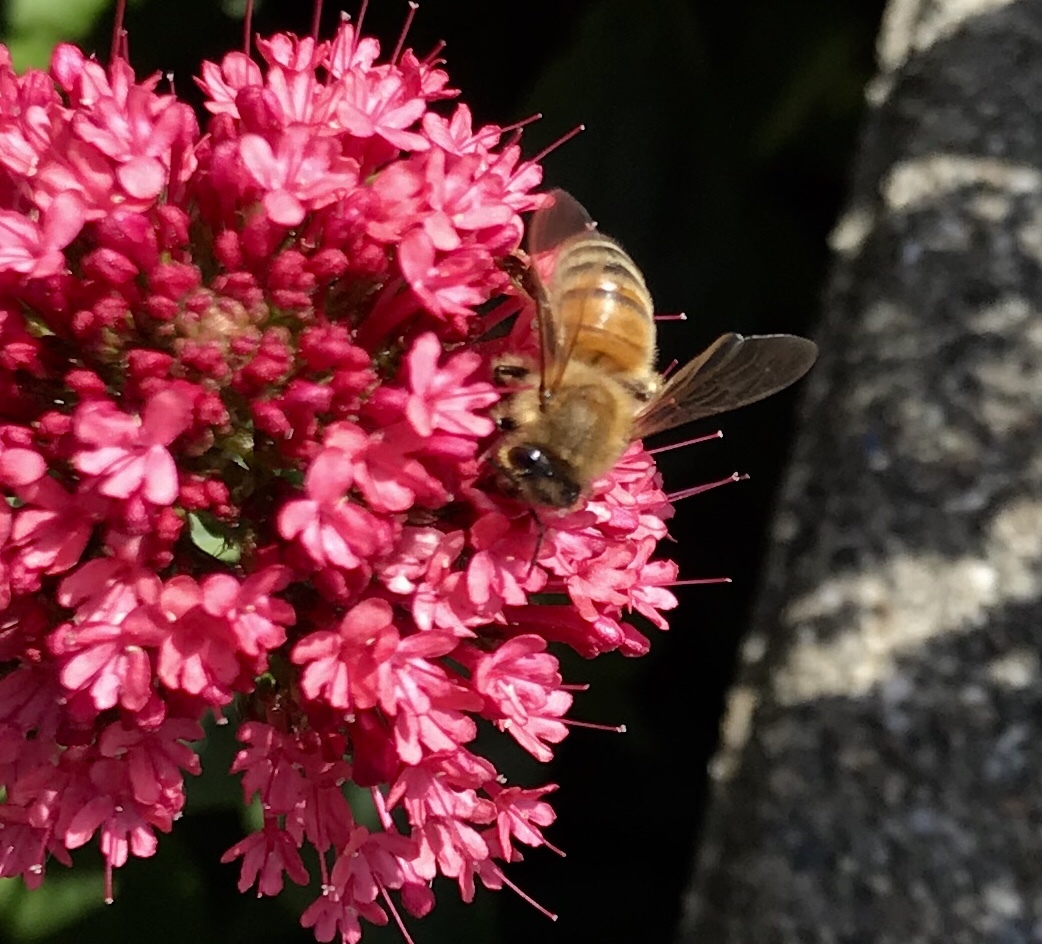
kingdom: Animalia
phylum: Arthropoda
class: Insecta
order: Hymenoptera
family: Apidae
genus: Apis
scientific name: Apis mellifera
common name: Honey bee
